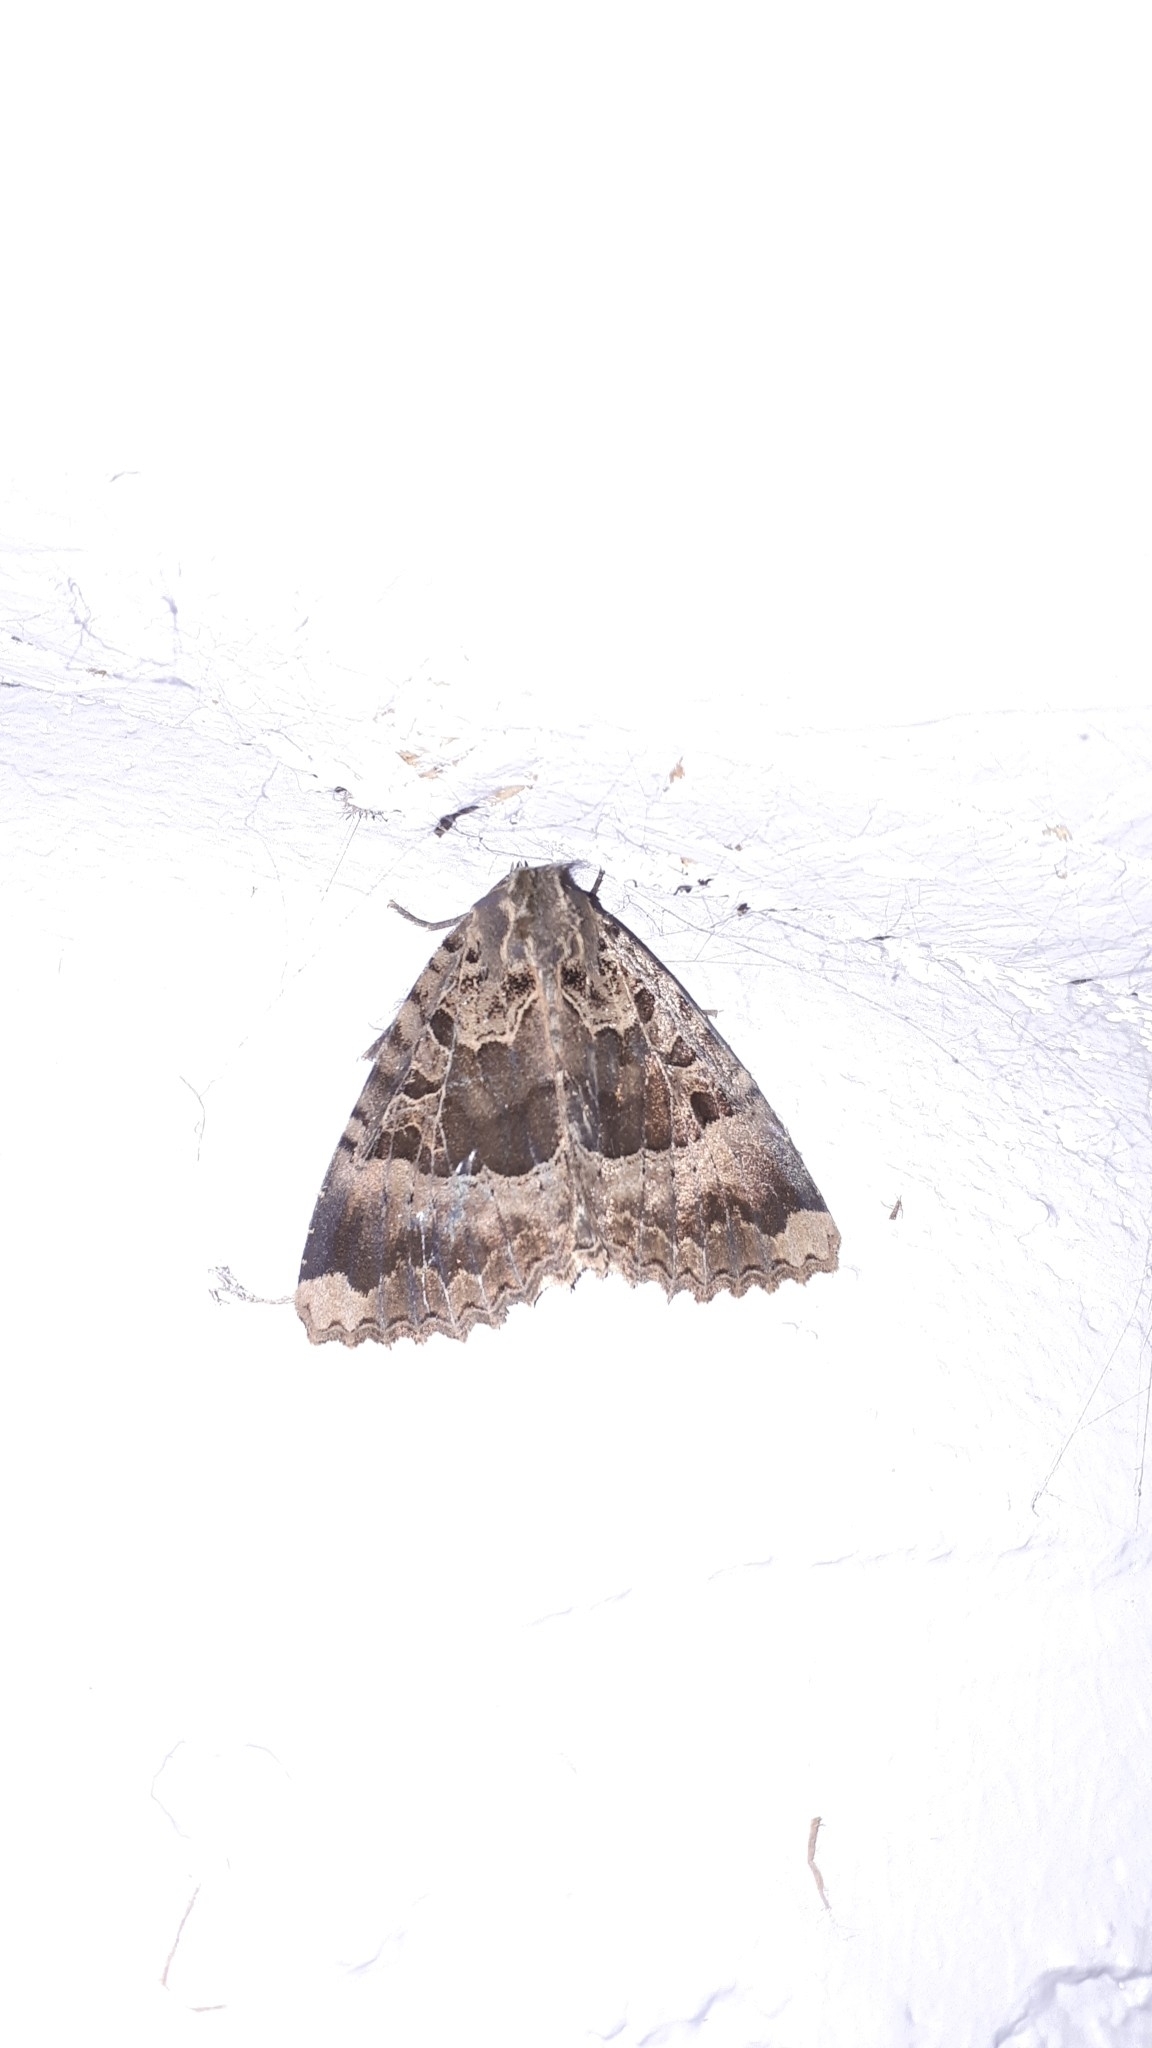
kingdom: Animalia
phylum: Arthropoda
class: Insecta
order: Lepidoptera
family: Noctuidae
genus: Mormo
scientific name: Mormo maura
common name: Old lady
